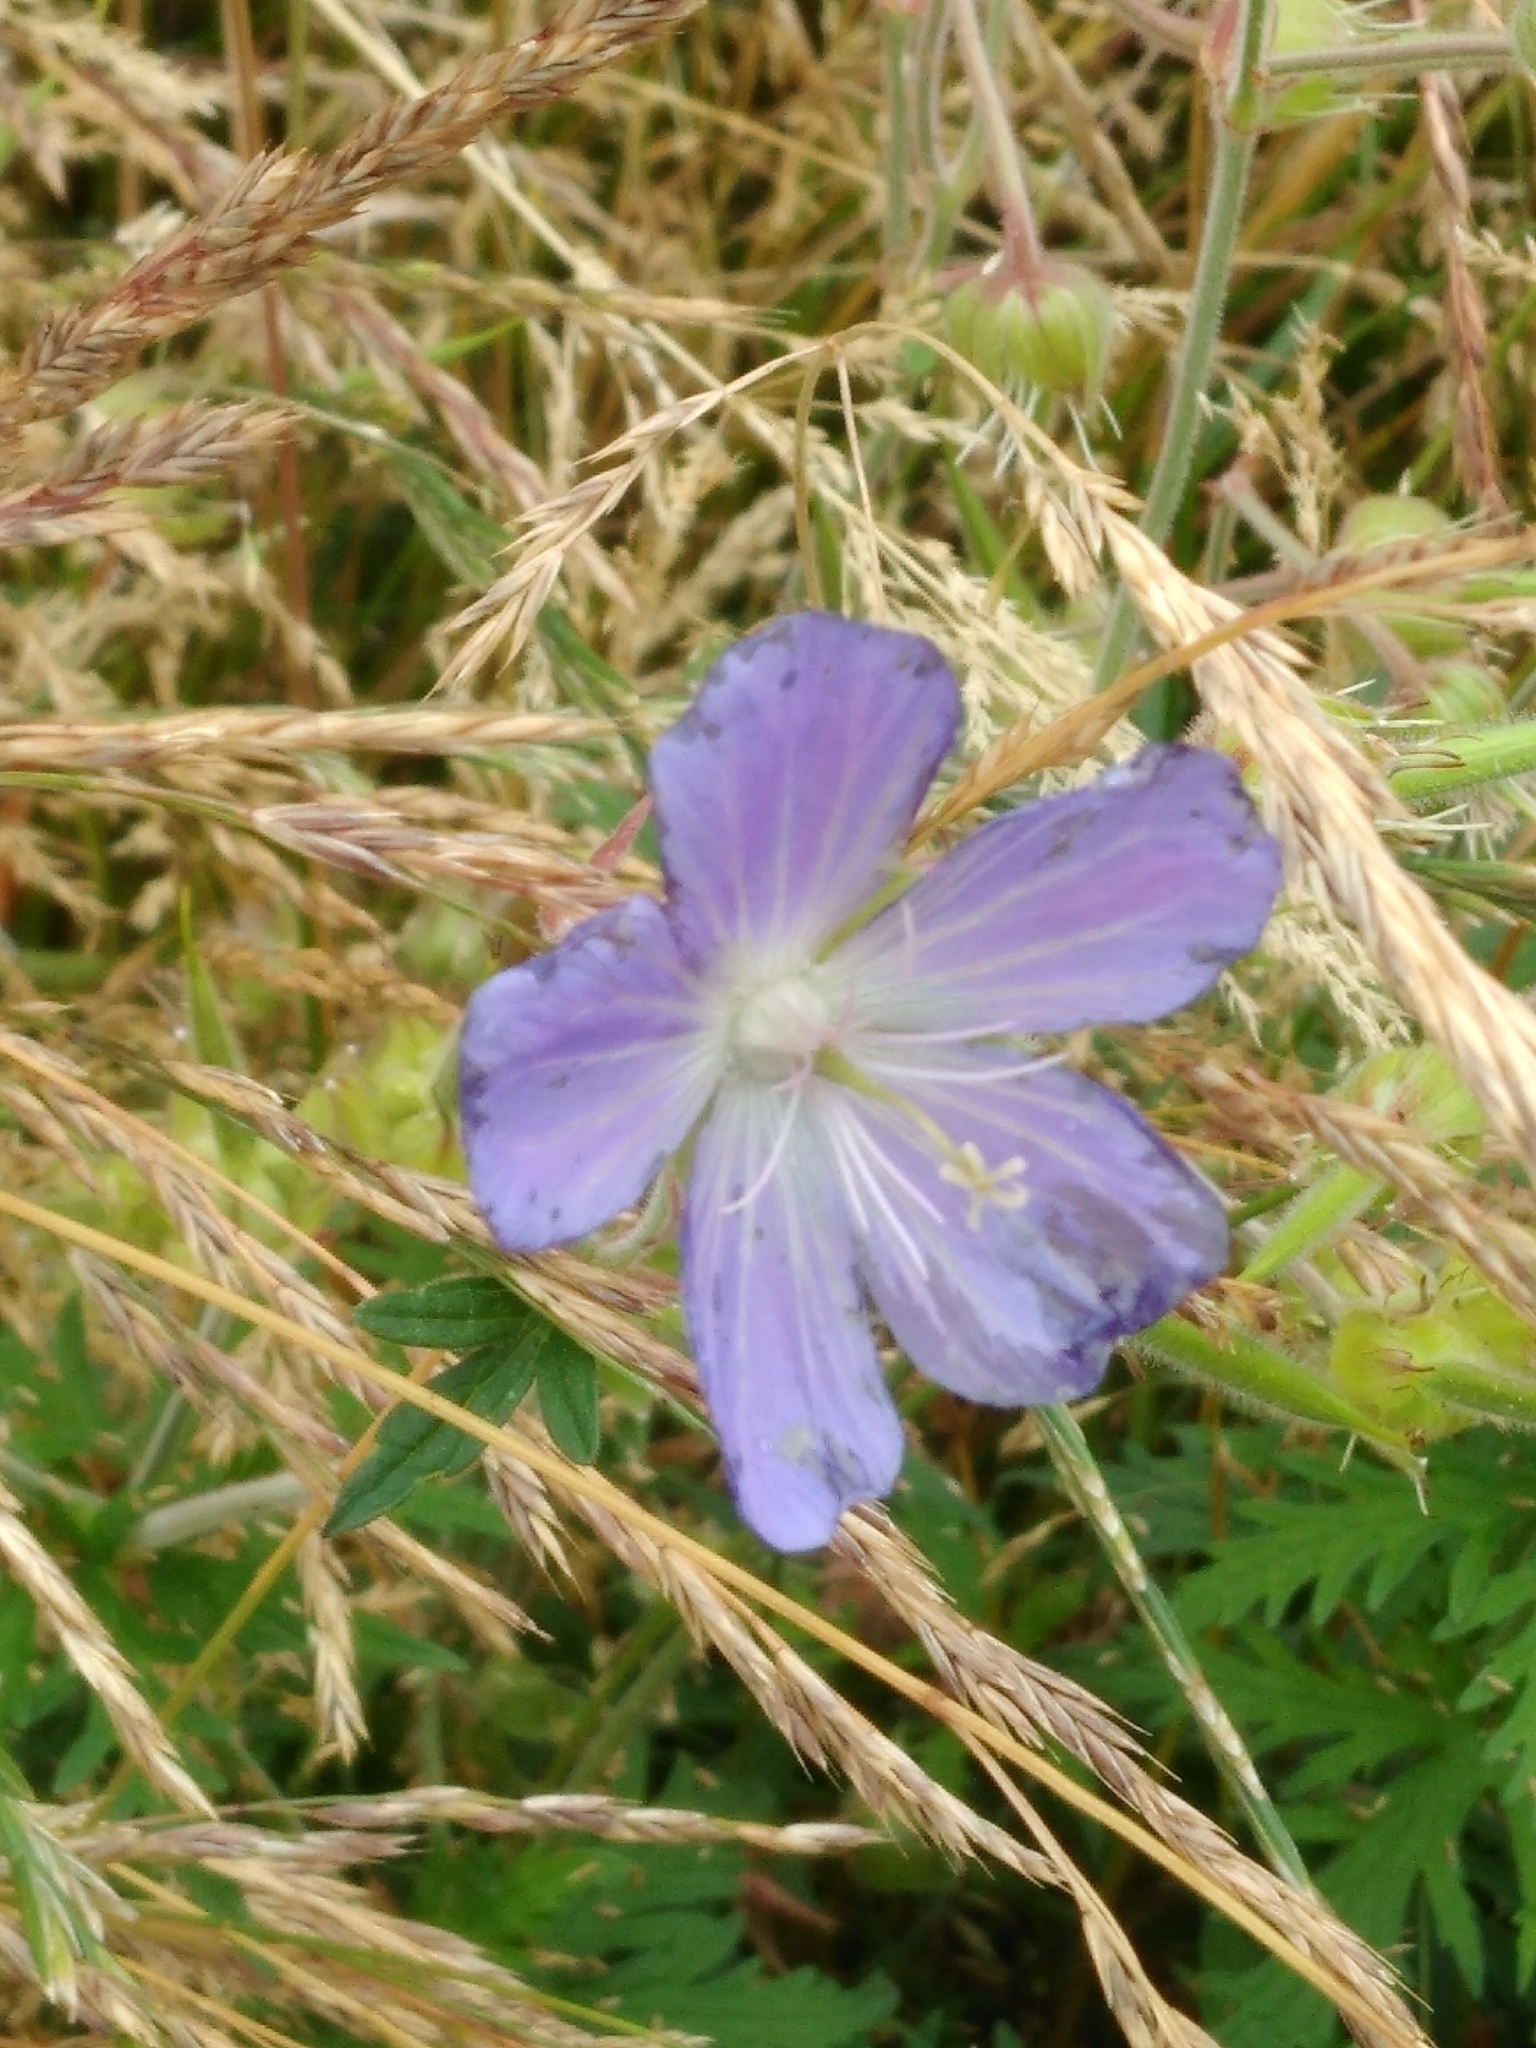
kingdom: Plantae
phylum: Tracheophyta
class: Magnoliopsida
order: Geraniales
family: Geraniaceae
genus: Geranium
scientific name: Geranium pratense
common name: Meadow crane's-bill
